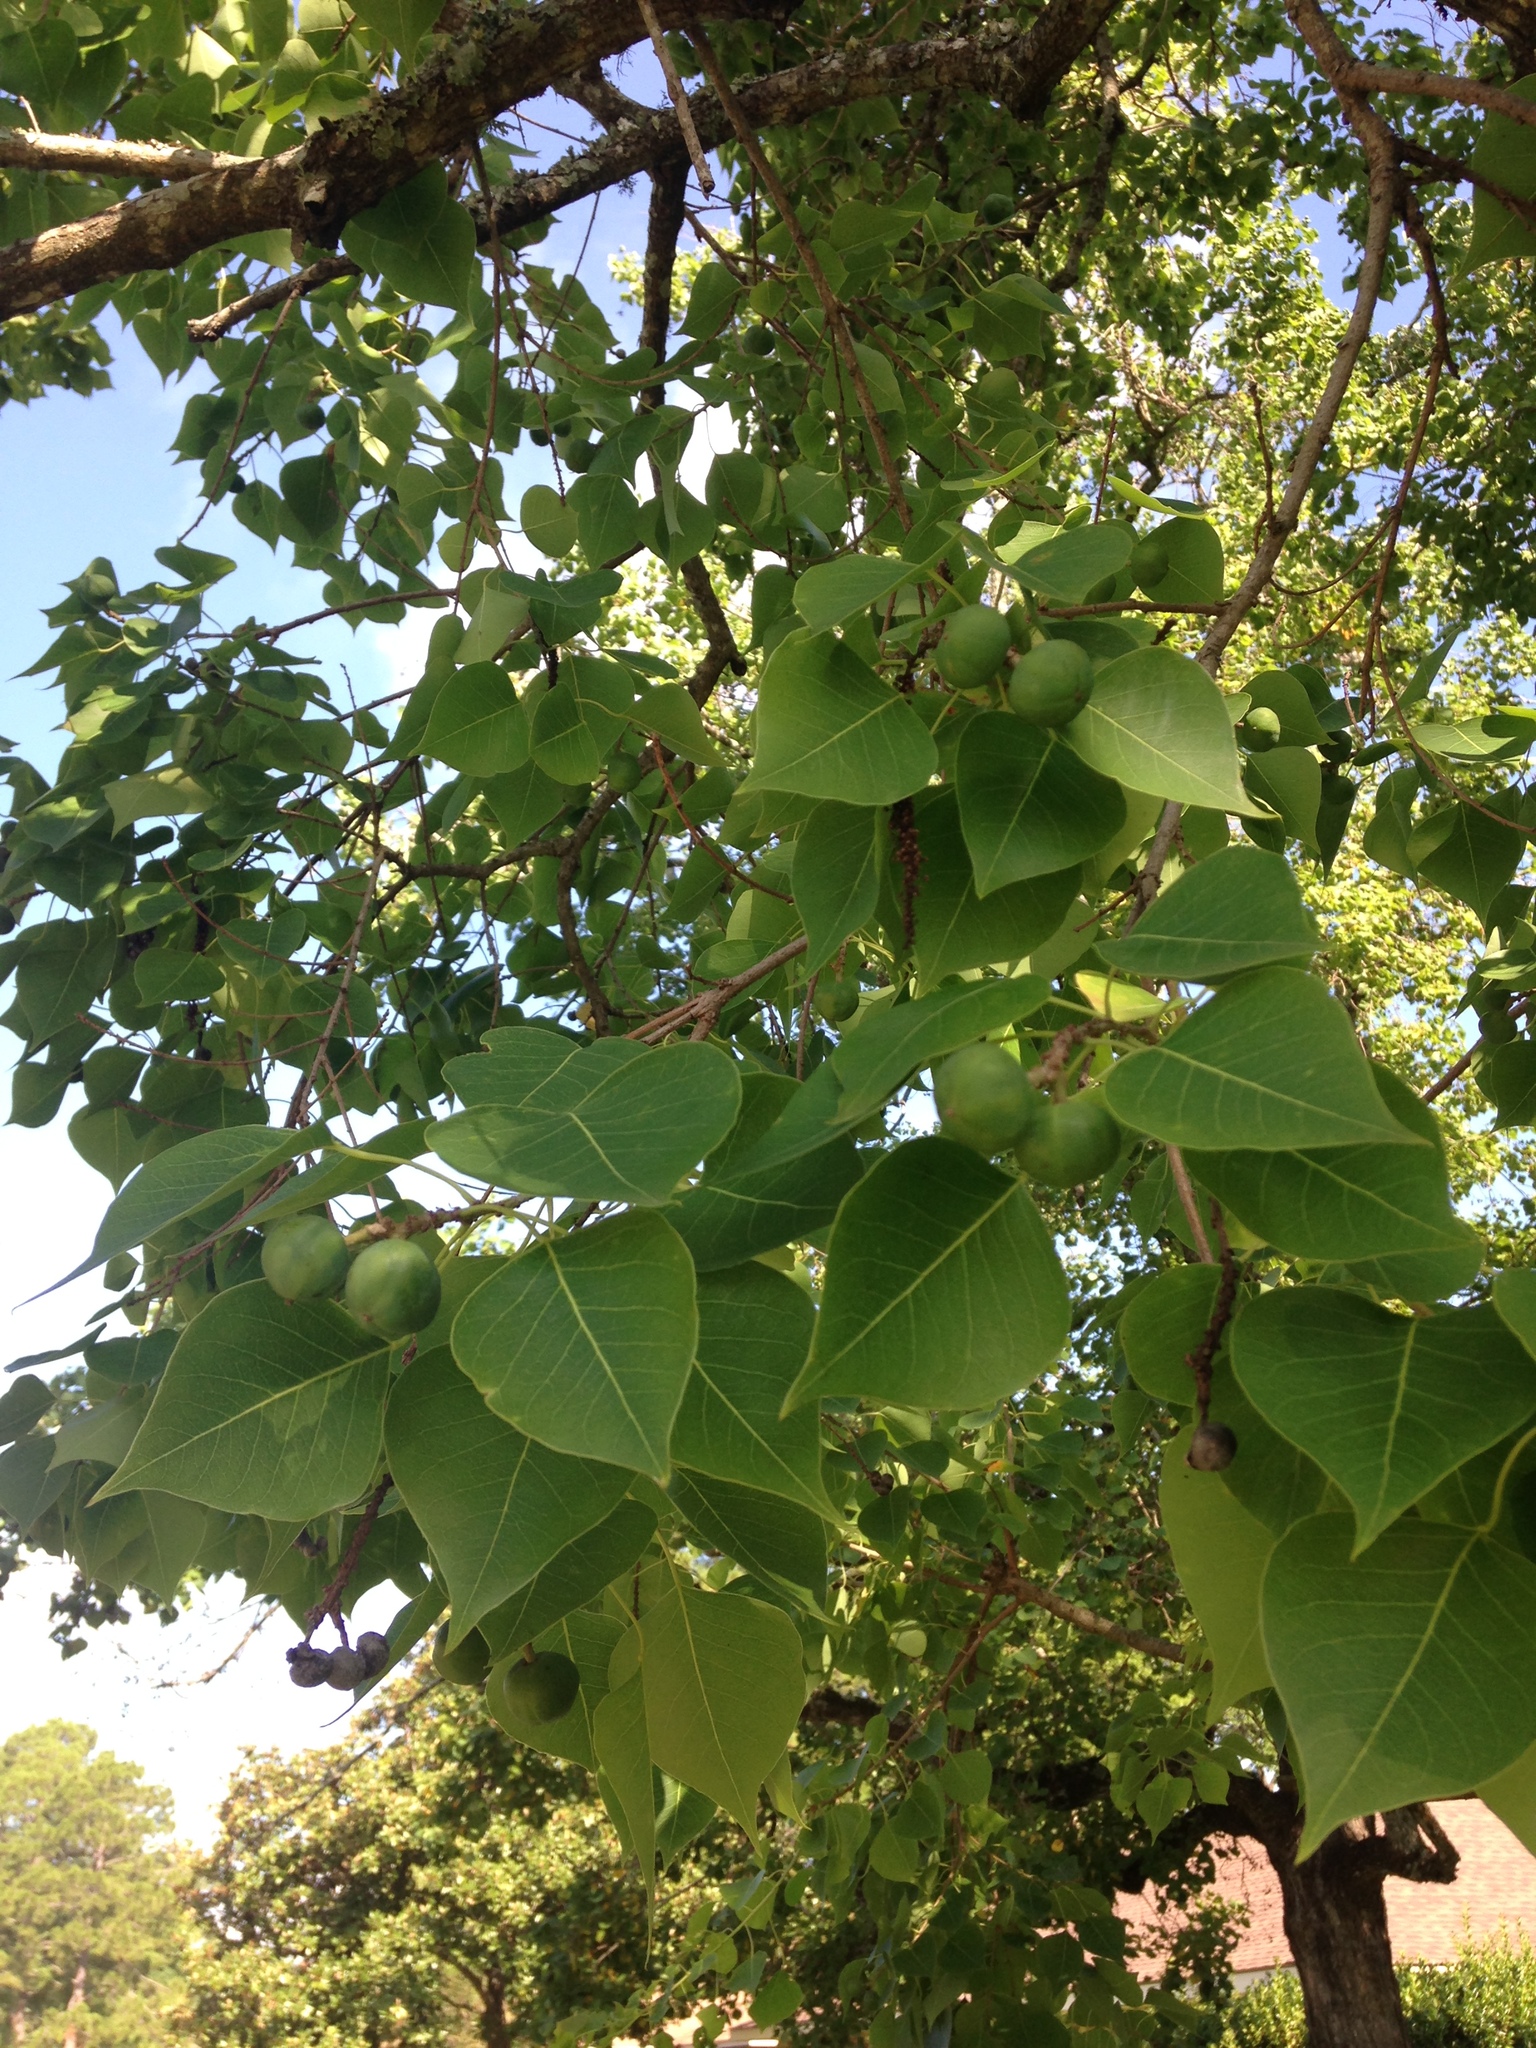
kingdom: Plantae
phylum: Tracheophyta
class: Magnoliopsida
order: Malpighiales
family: Euphorbiaceae
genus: Triadica
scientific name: Triadica sebifera
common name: Chinese tallow
